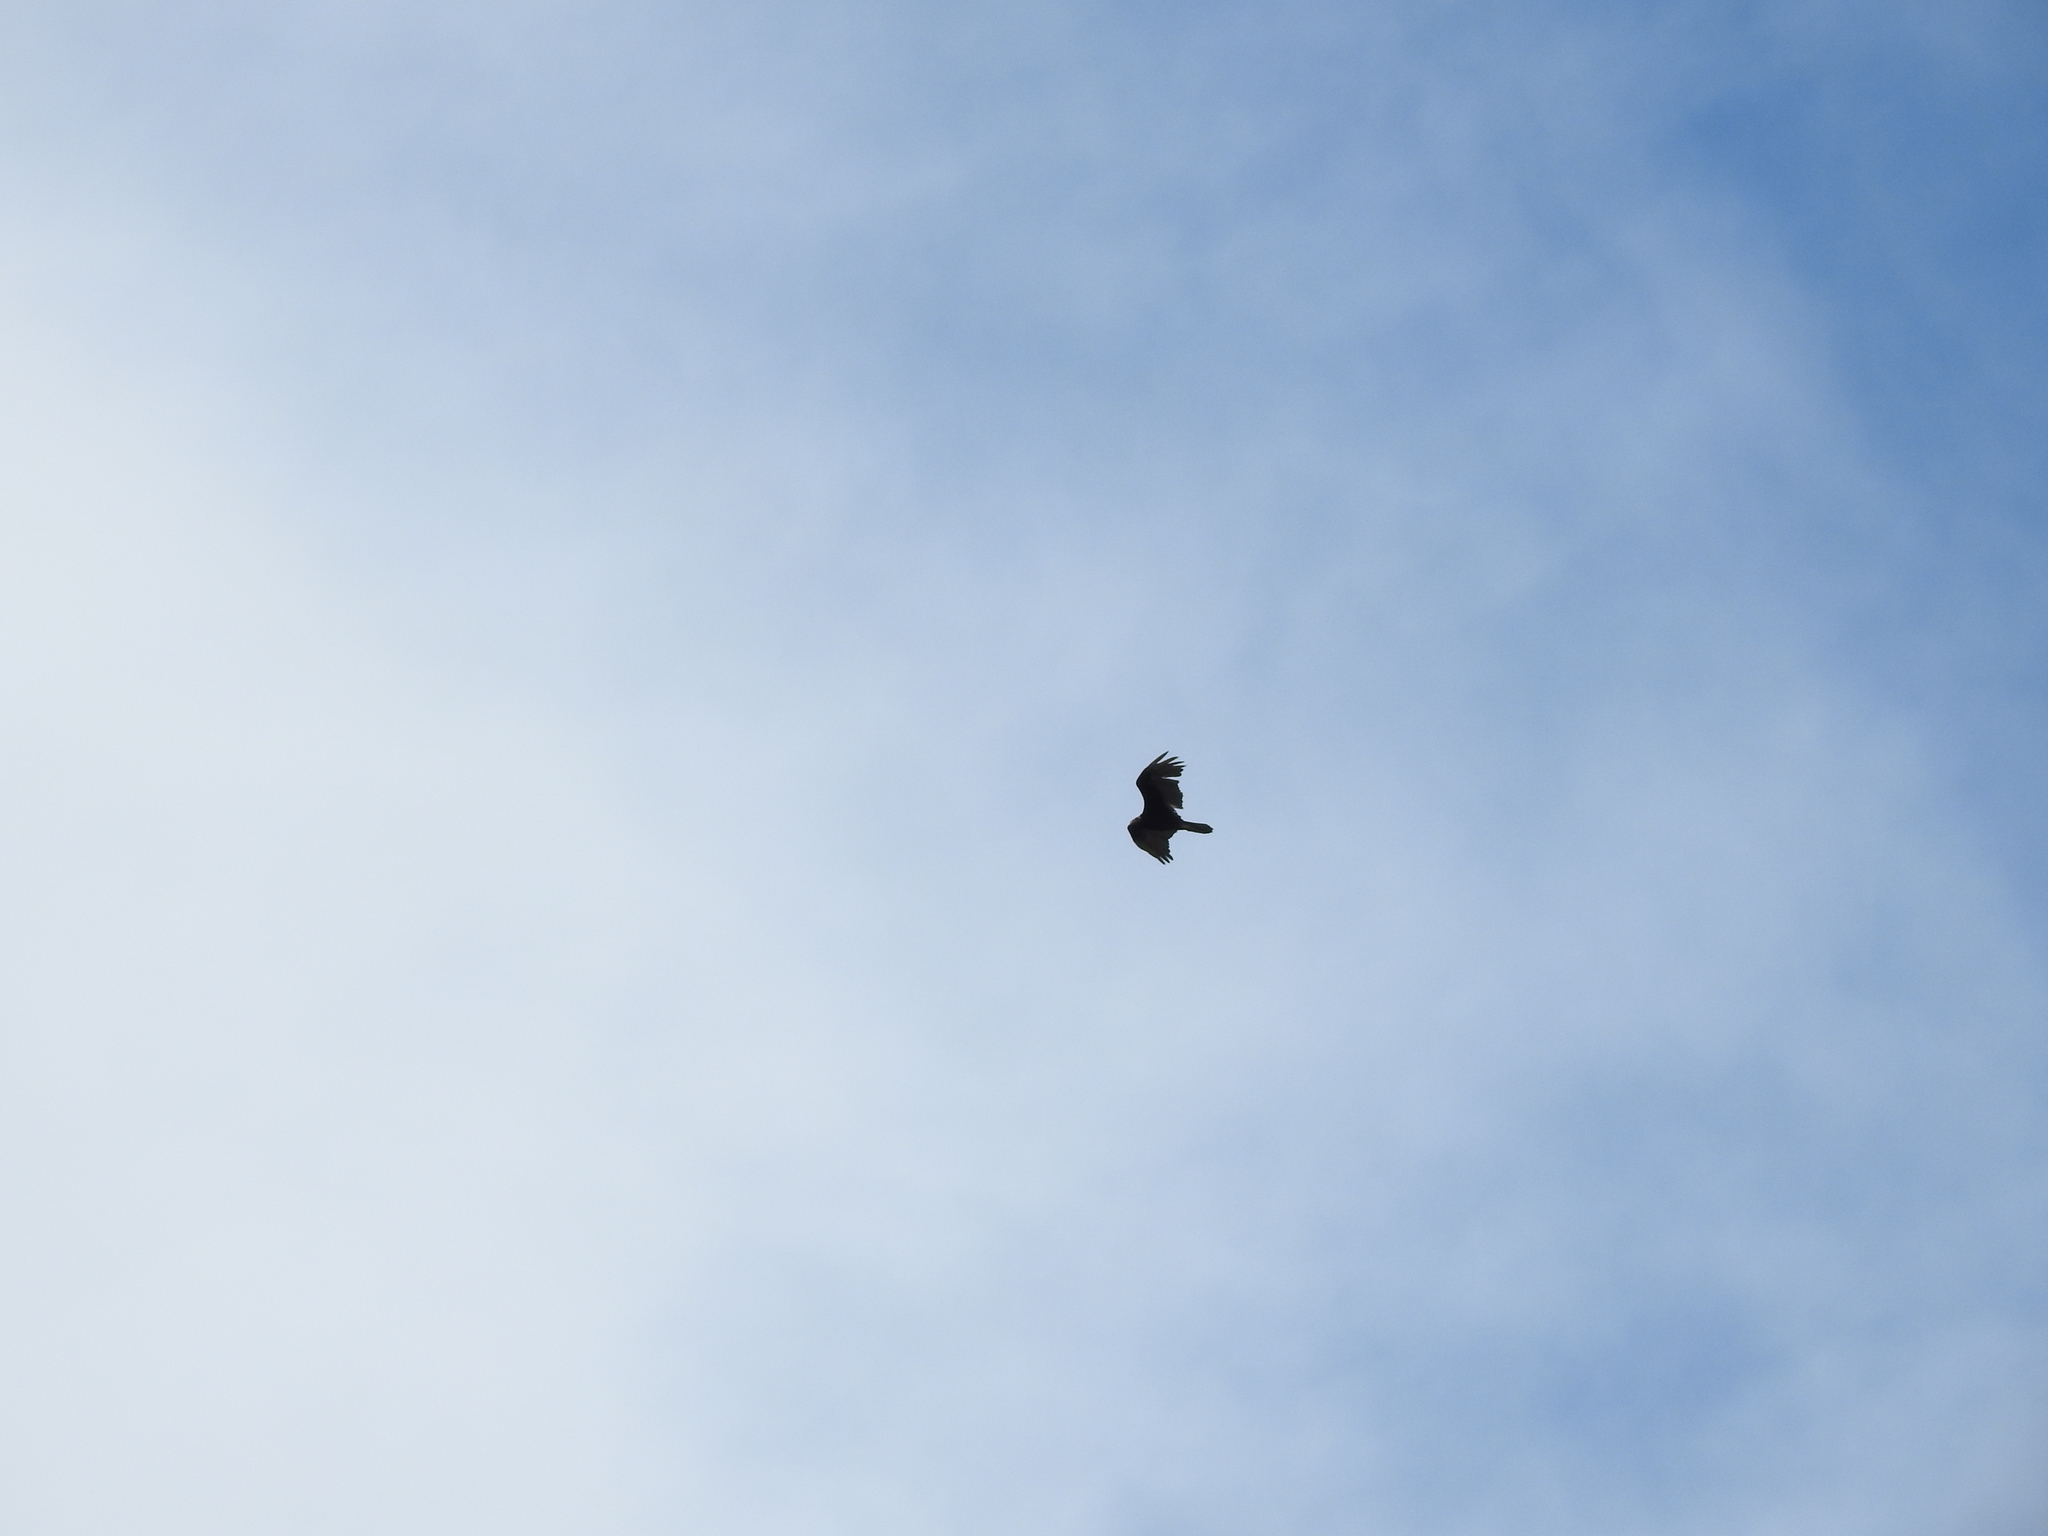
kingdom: Animalia
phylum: Chordata
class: Aves
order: Accipitriformes
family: Cathartidae
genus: Cathartes
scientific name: Cathartes aura
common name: Turkey vulture
